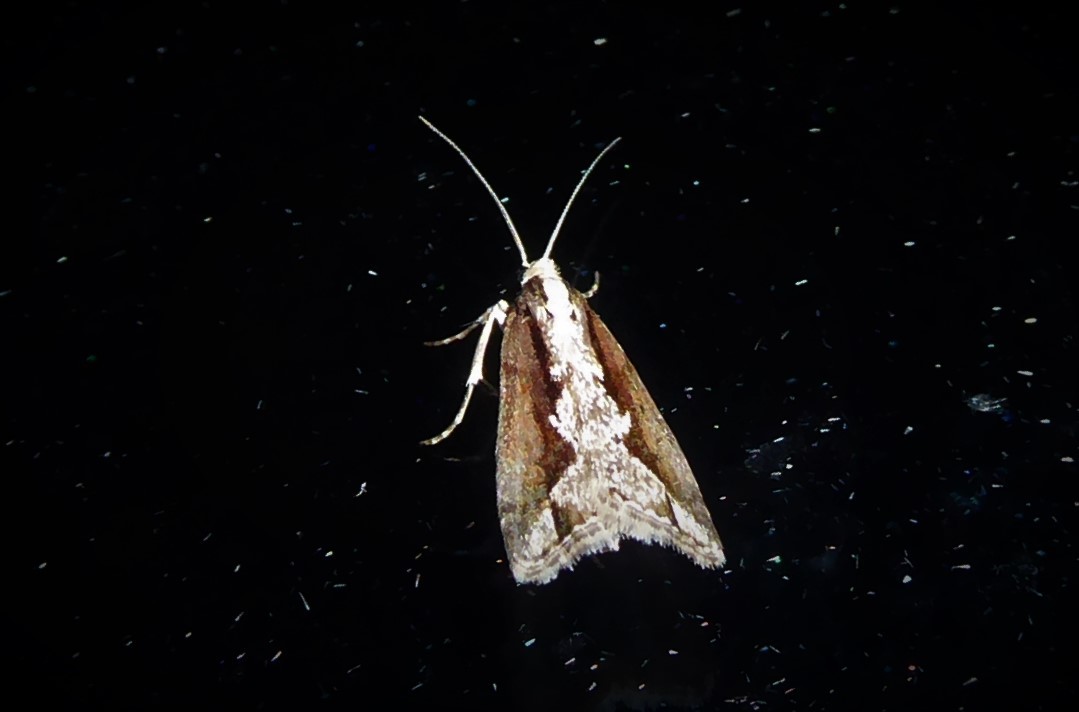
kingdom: Animalia
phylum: Arthropoda
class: Insecta
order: Lepidoptera
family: Crambidae
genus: Eudonia
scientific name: Eudonia steropaea
